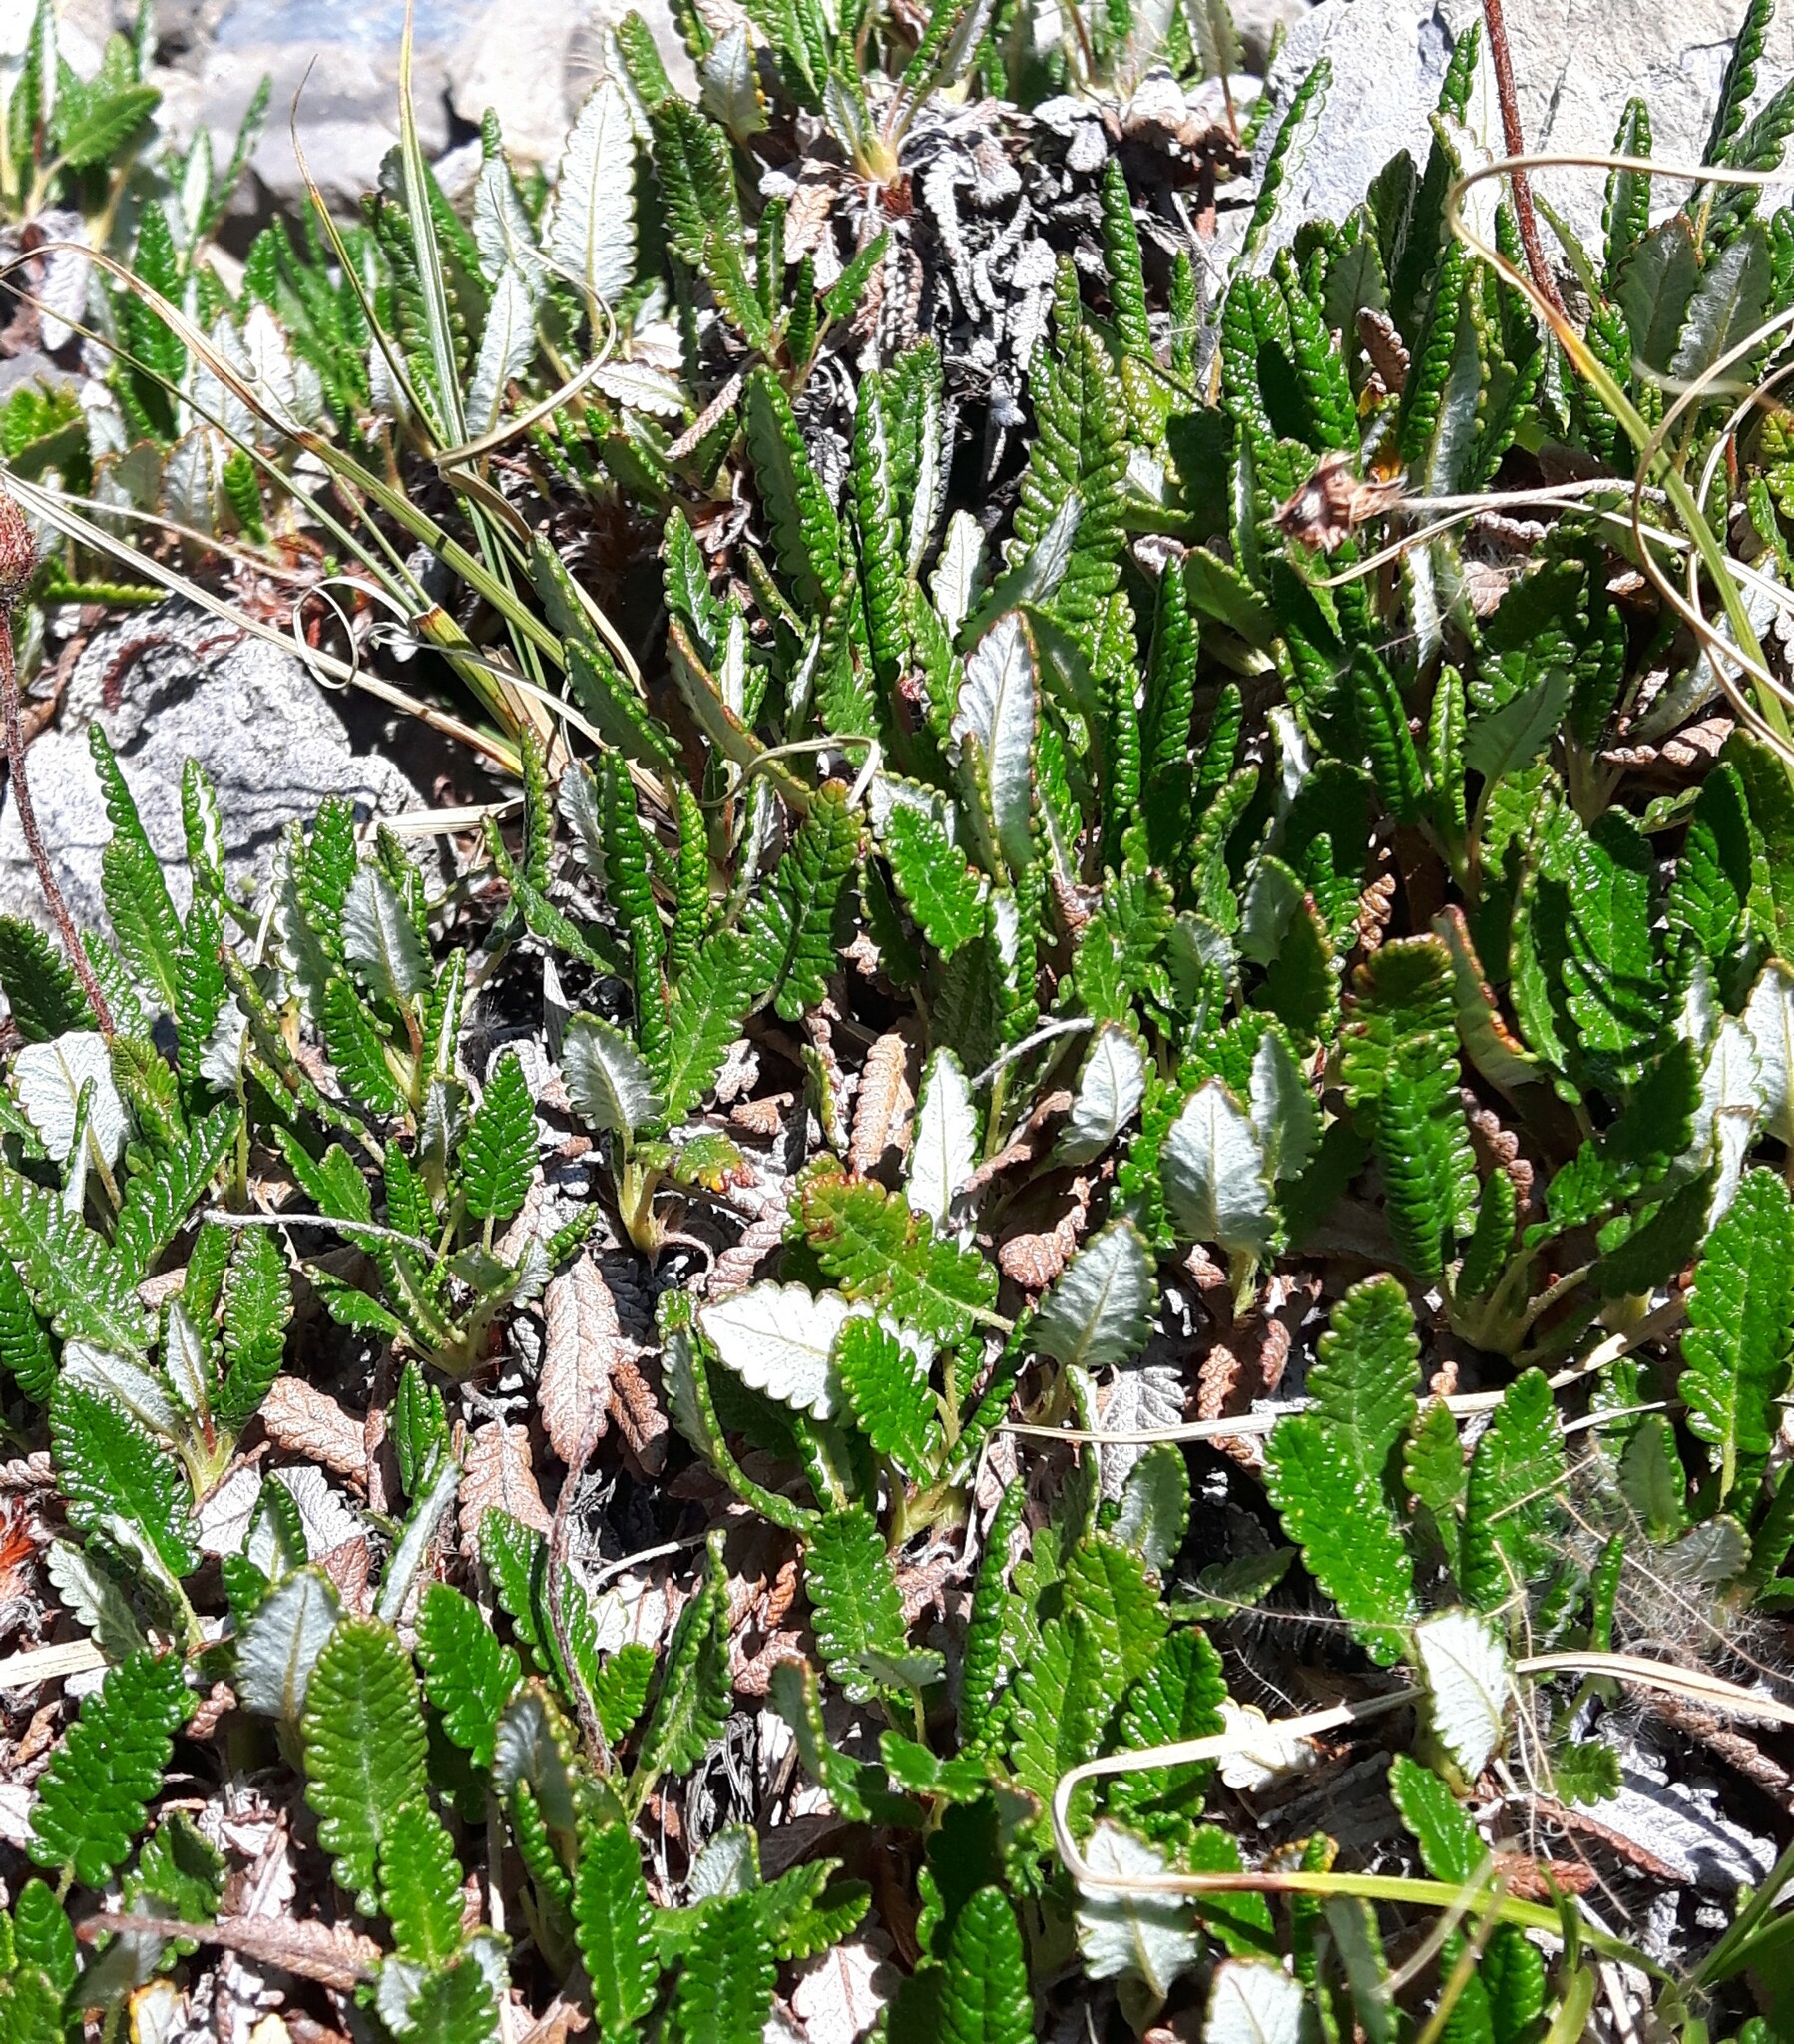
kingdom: Plantae
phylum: Tracheophyta
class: Magnoliopsida
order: Rosales
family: Rosaceae
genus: Dryas
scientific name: Dryas octopetala
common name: Eight-petal mountain-avens
